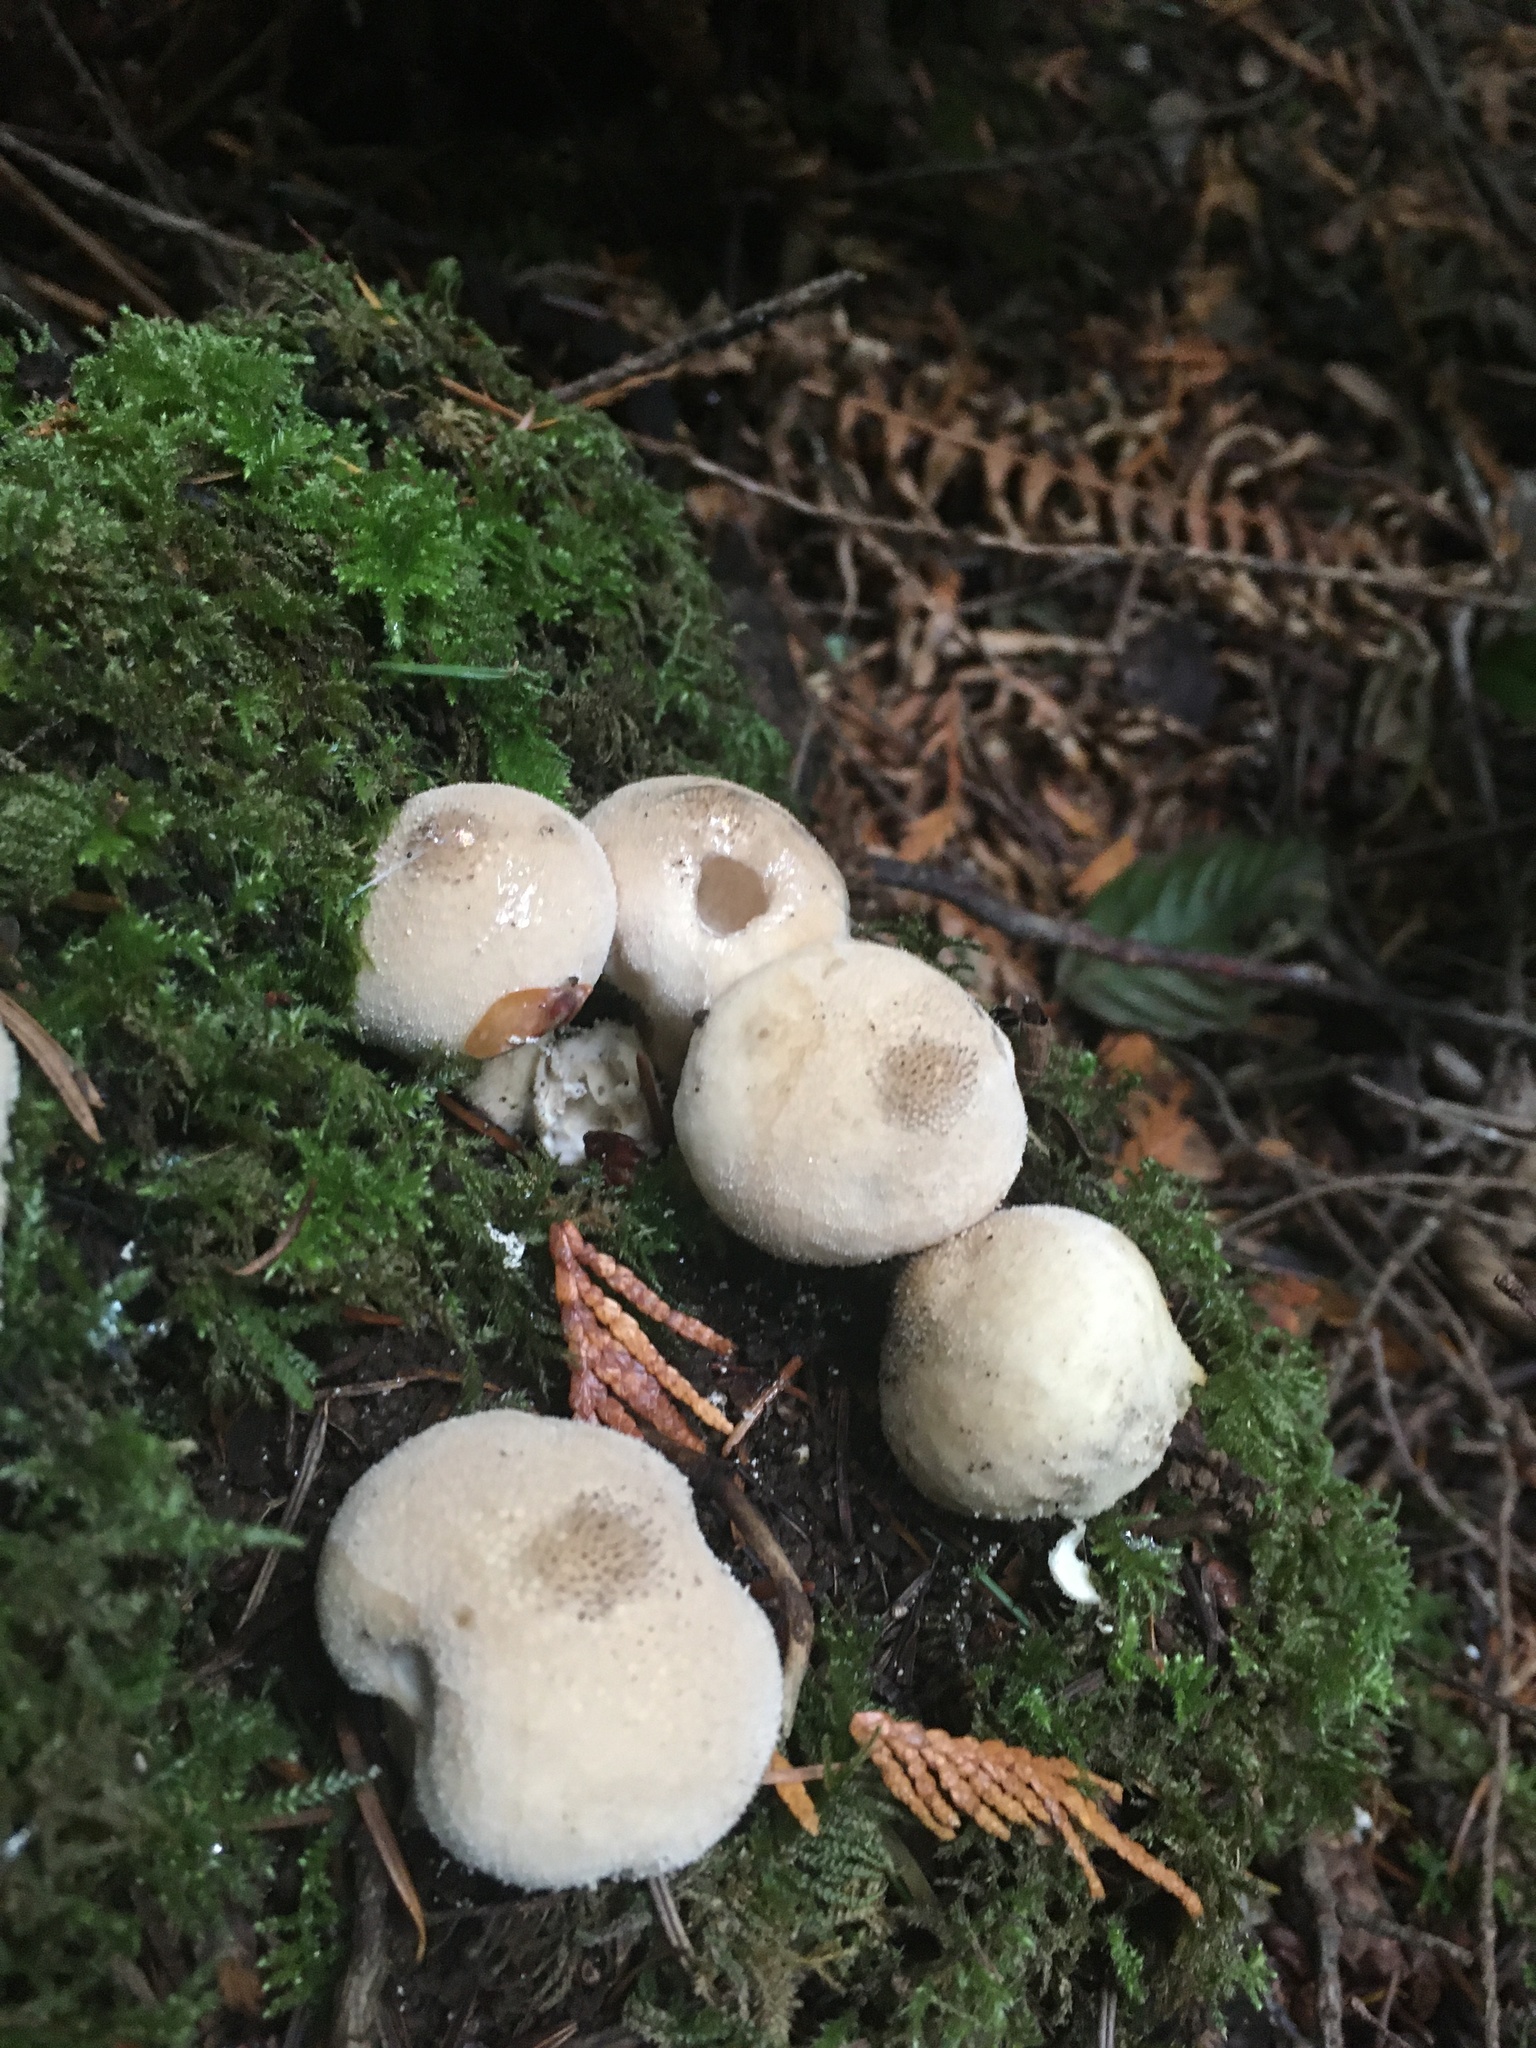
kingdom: Fungi
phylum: Basidiomycota
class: Agaricomycetes
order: Agaricales
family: Lycoperdaceae
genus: Apioperdon
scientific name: Apioperdon pyriforme
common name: Pear-shaped puffball
